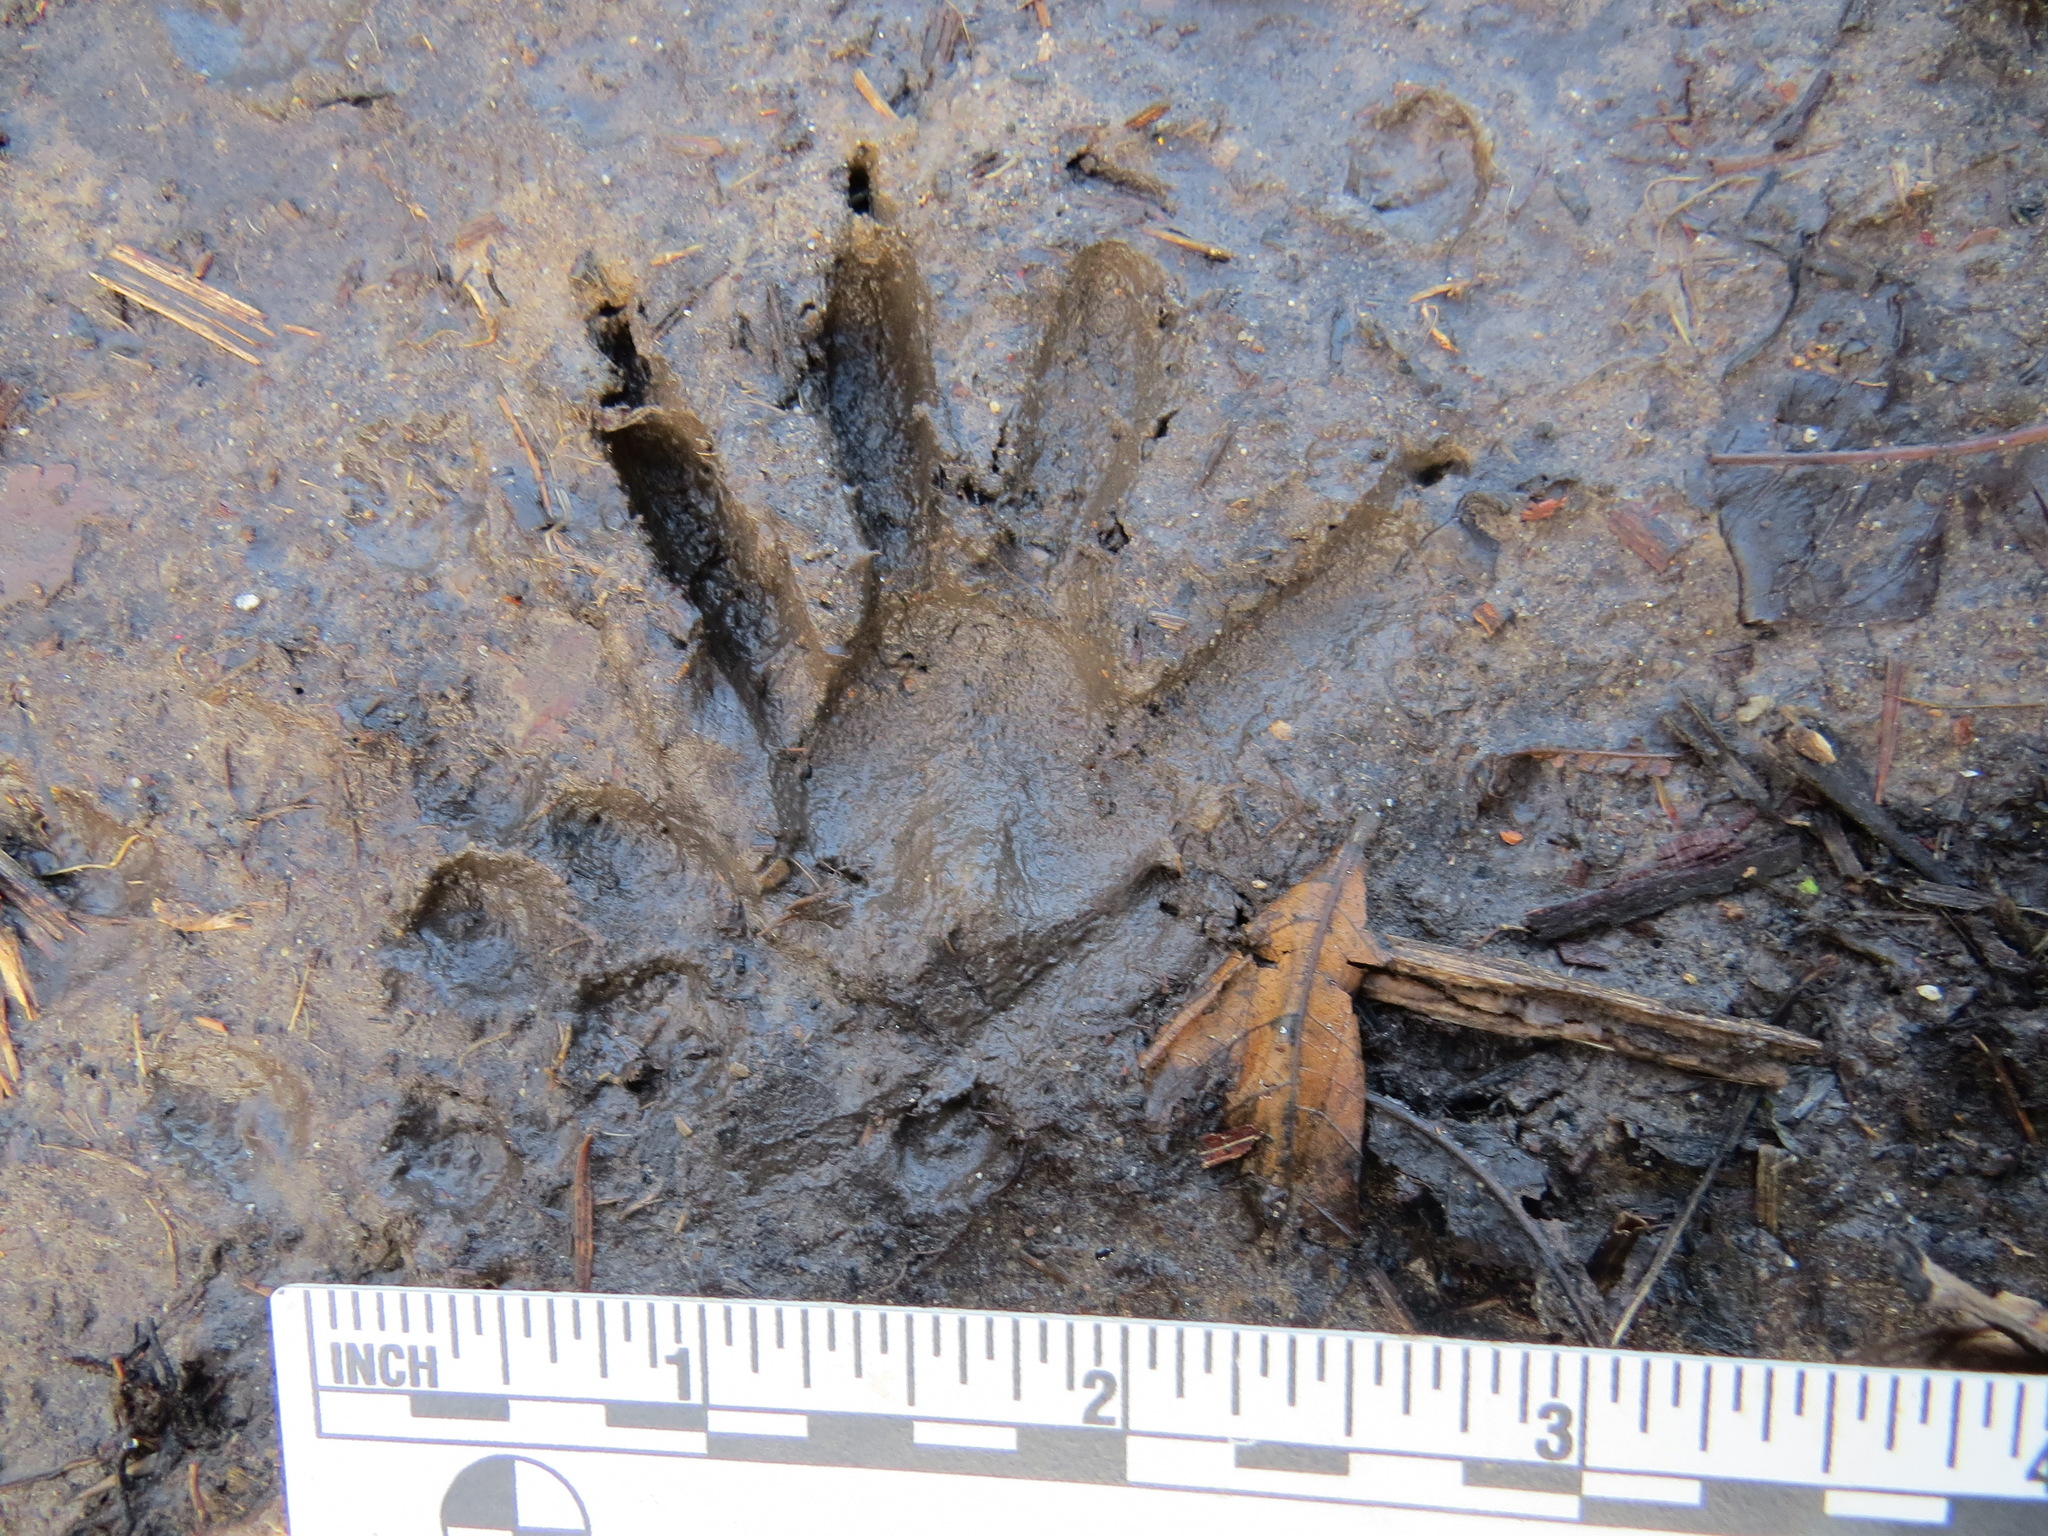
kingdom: Animalia
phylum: Chordata
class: Mammalia
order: Carnivora
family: Procyonidae
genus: Procyon
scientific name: Procyon lotor
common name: Raccoon
